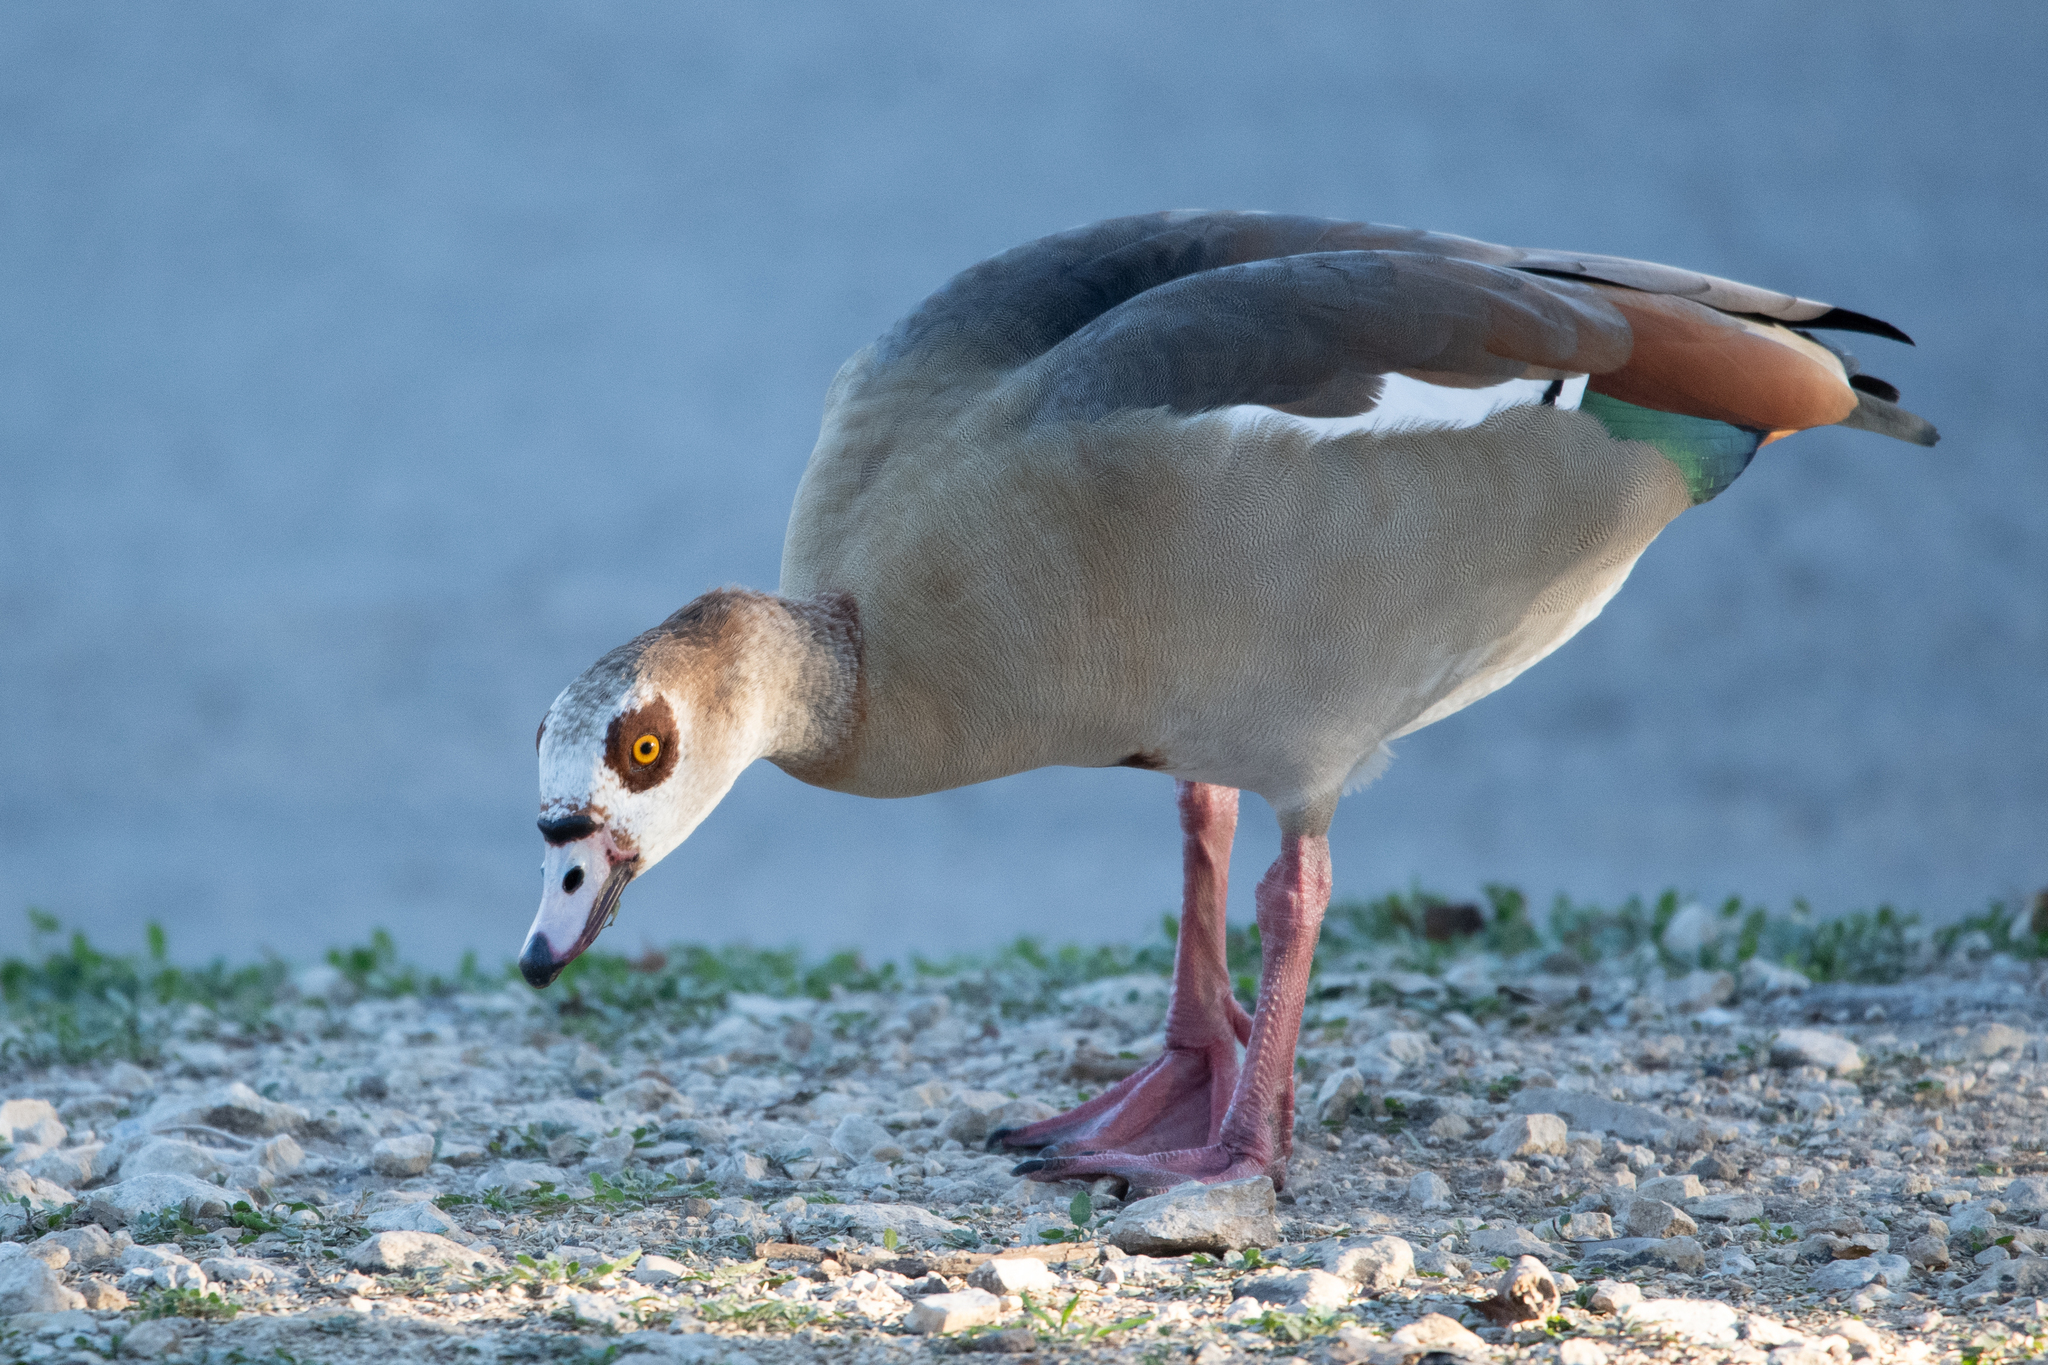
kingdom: Animalia
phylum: Chordata
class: Aves
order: Anseriformes
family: Anatidae
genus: Alopochen
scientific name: Alopochen aegyptiaca
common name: Egyptian goose
